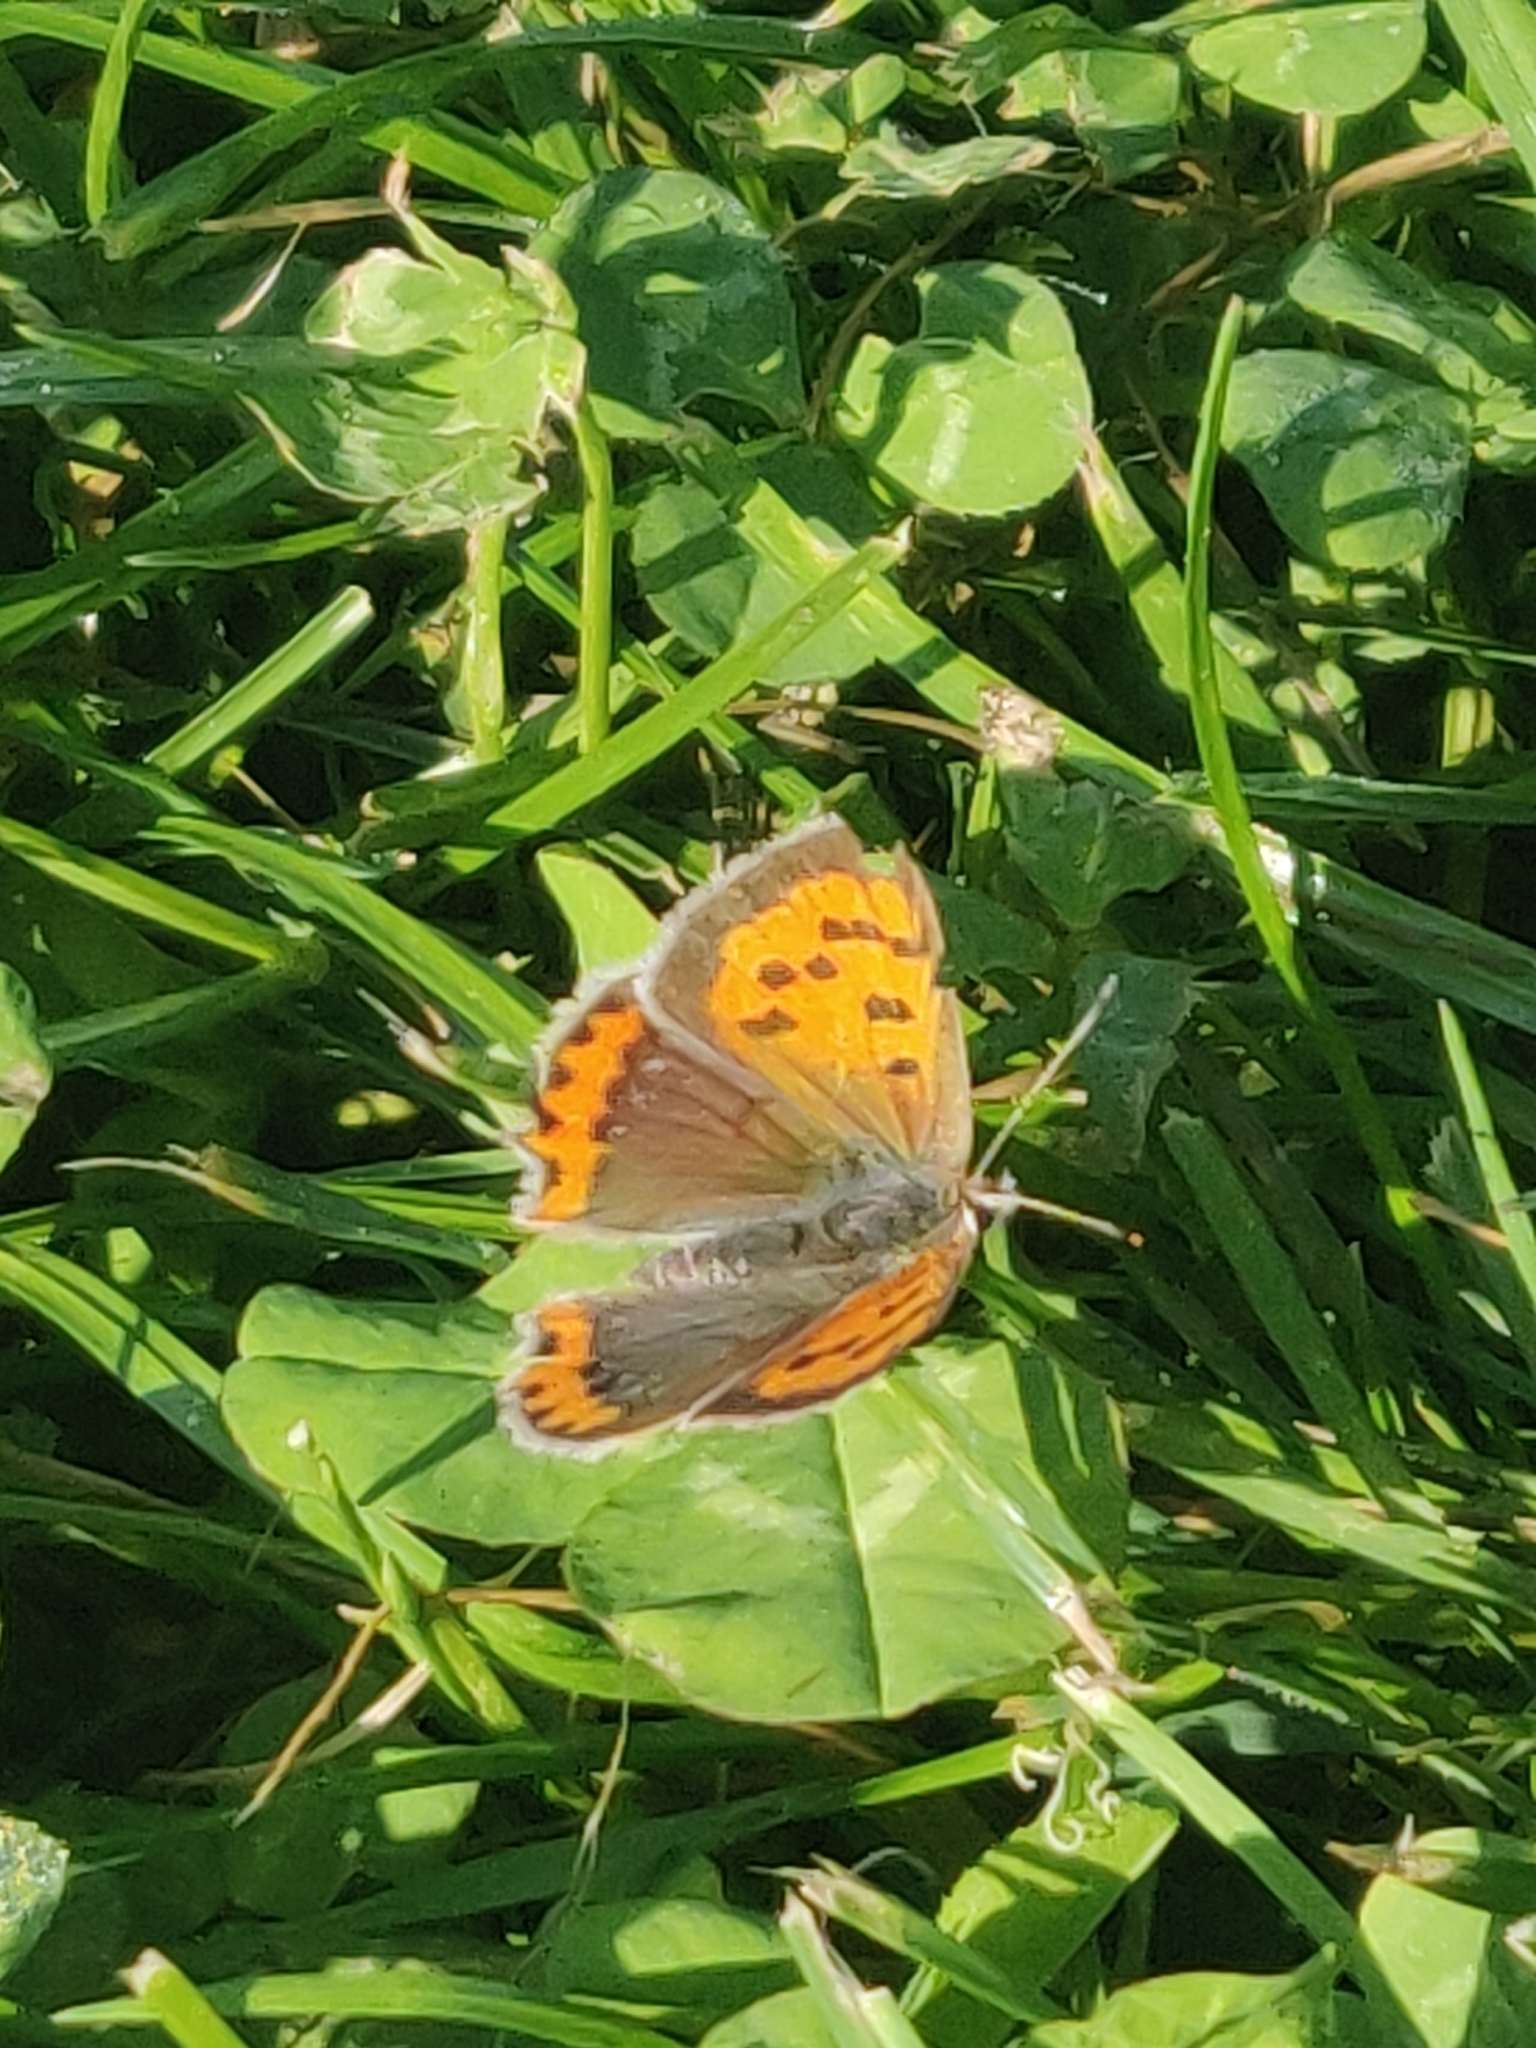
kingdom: Animalia
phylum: Arthropoda
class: Insecta
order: Lepidoptera
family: Lycaenidae
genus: Lycaena
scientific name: Lycaena phlaeas
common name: Small copper
